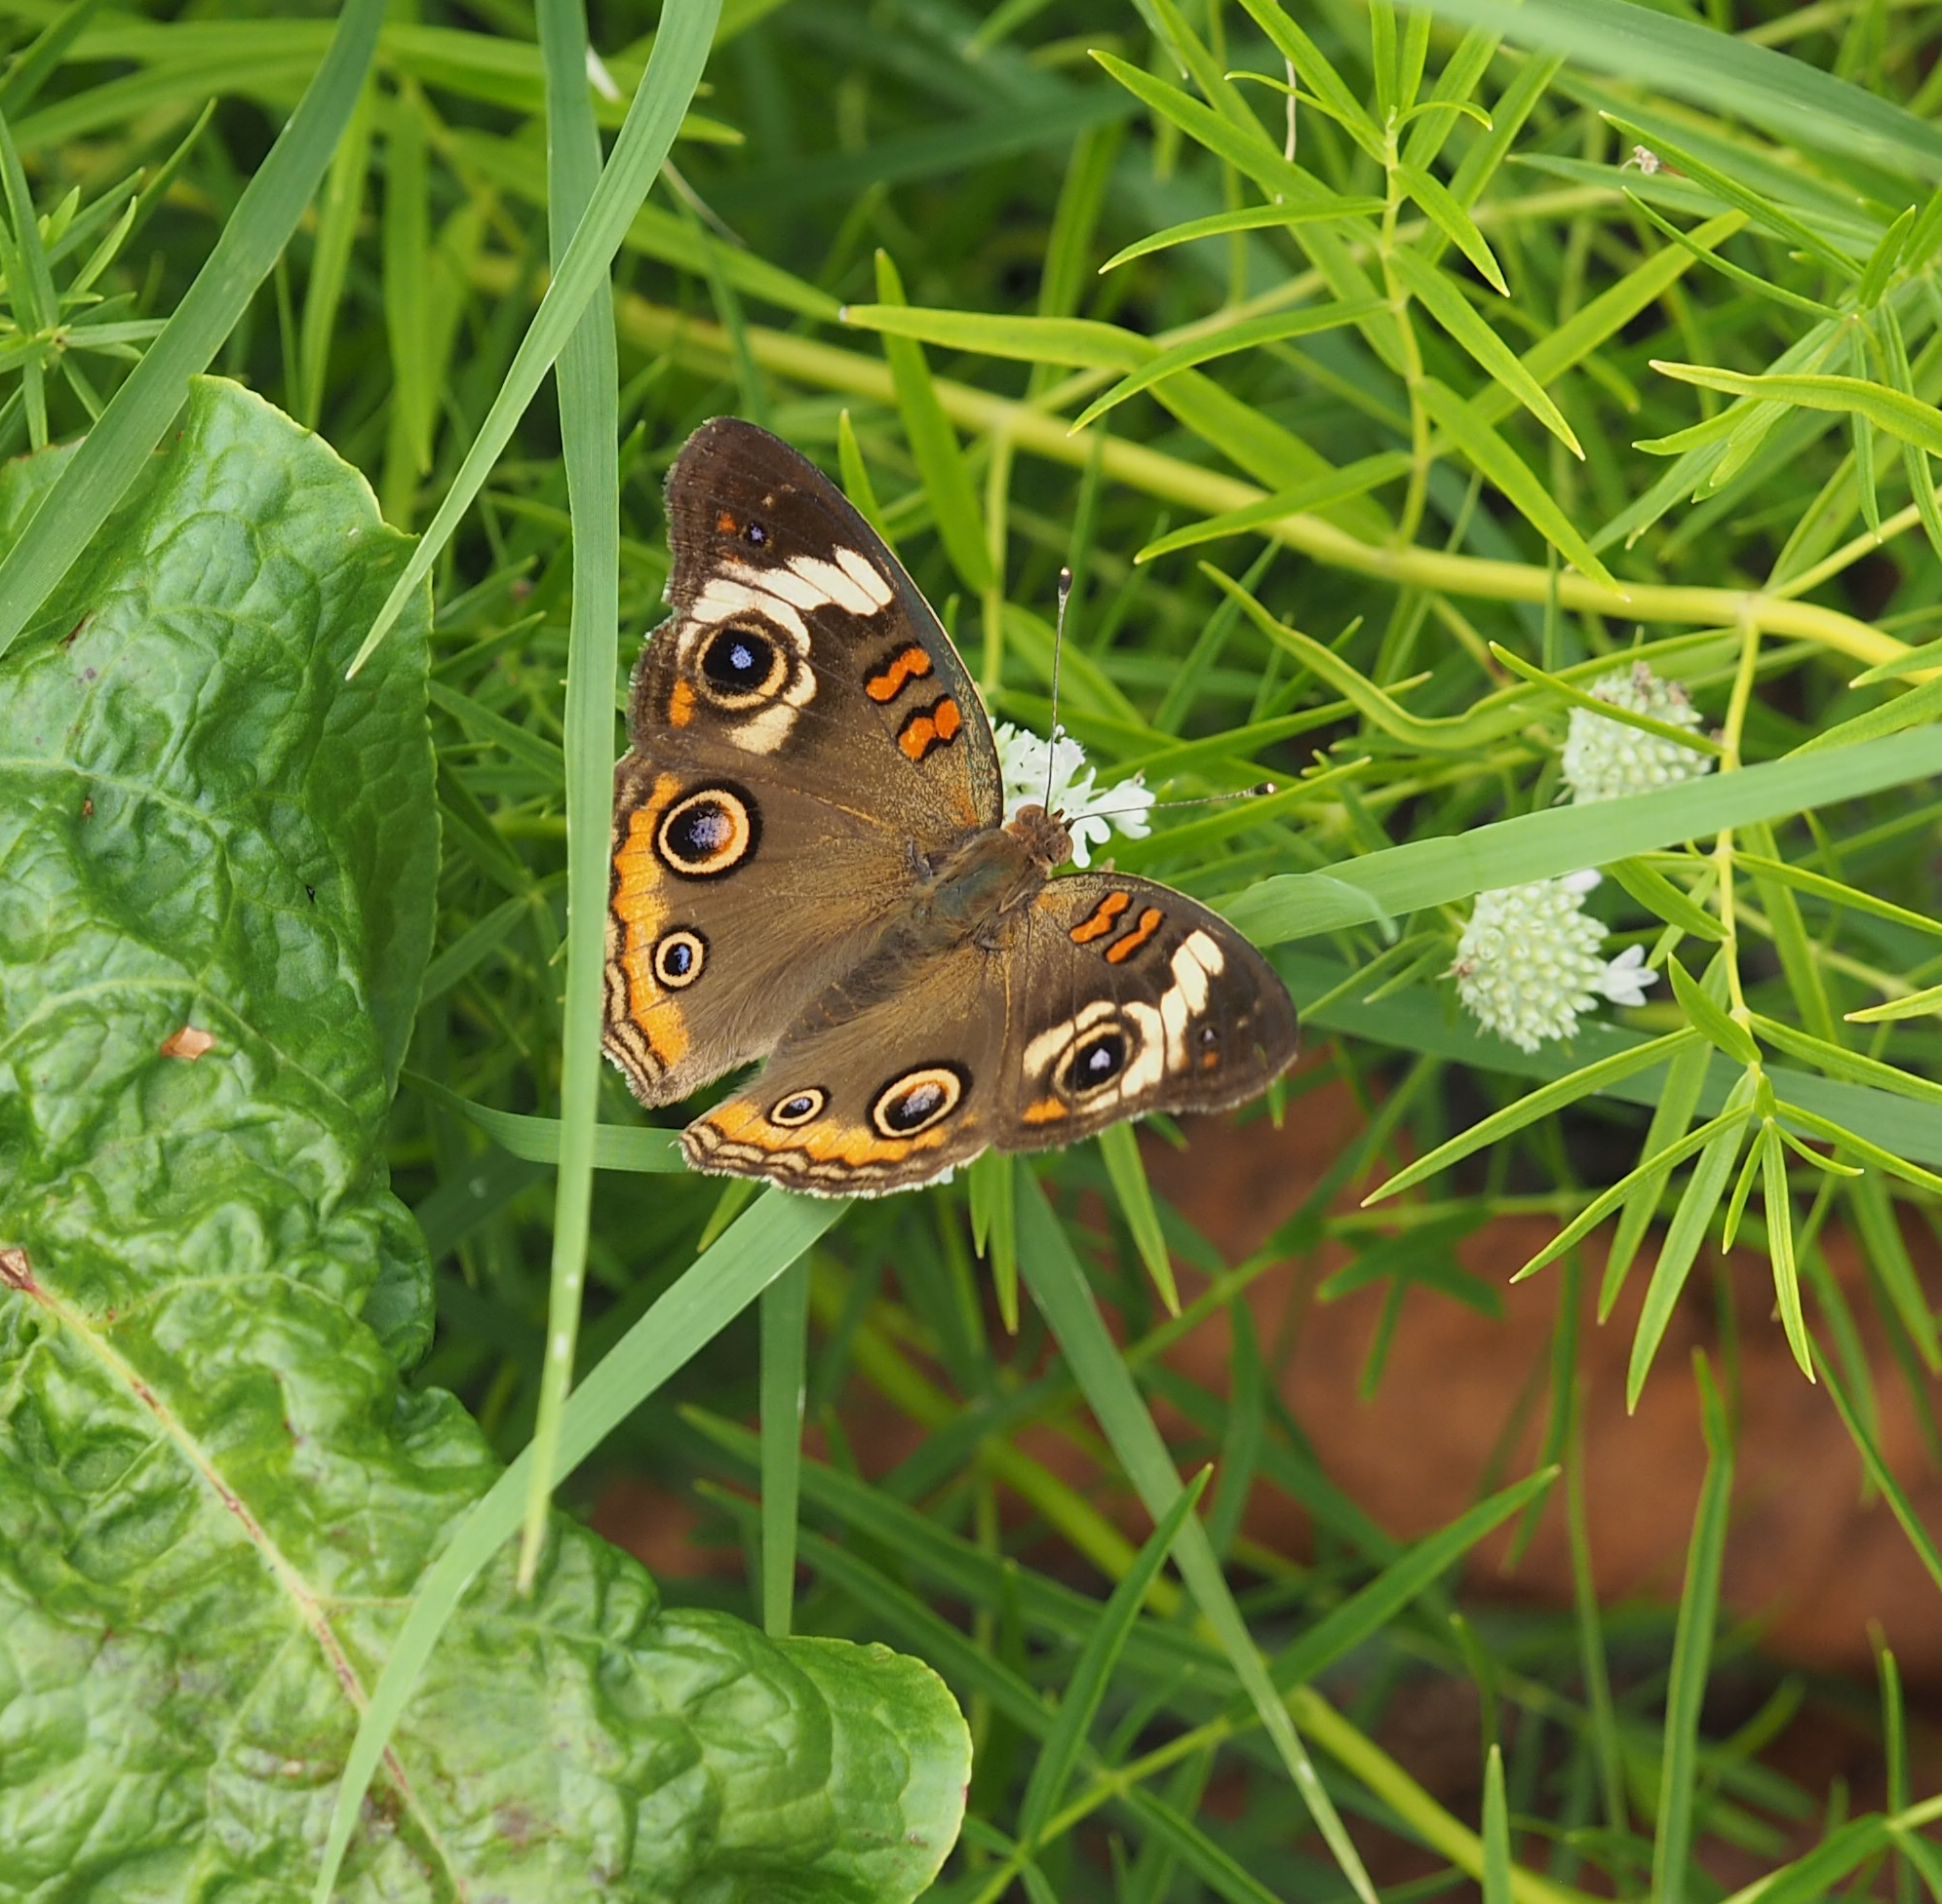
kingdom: Animalia
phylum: Arthropoda
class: Insecta
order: Lepidoptera
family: Nymphalidae
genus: Junonia
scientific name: Junonia coenia
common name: Common buckeye
